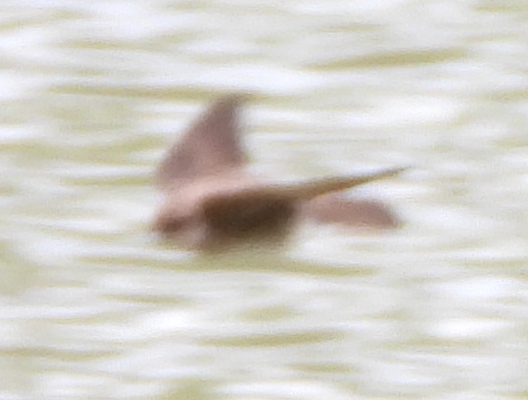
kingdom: Animalia
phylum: Chordata
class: Aves
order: Passeriformes
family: Hirundinidae
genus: Stelgidopteryx
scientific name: Stelgidopteryx serripennis
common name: Northern rough-winged swallow
